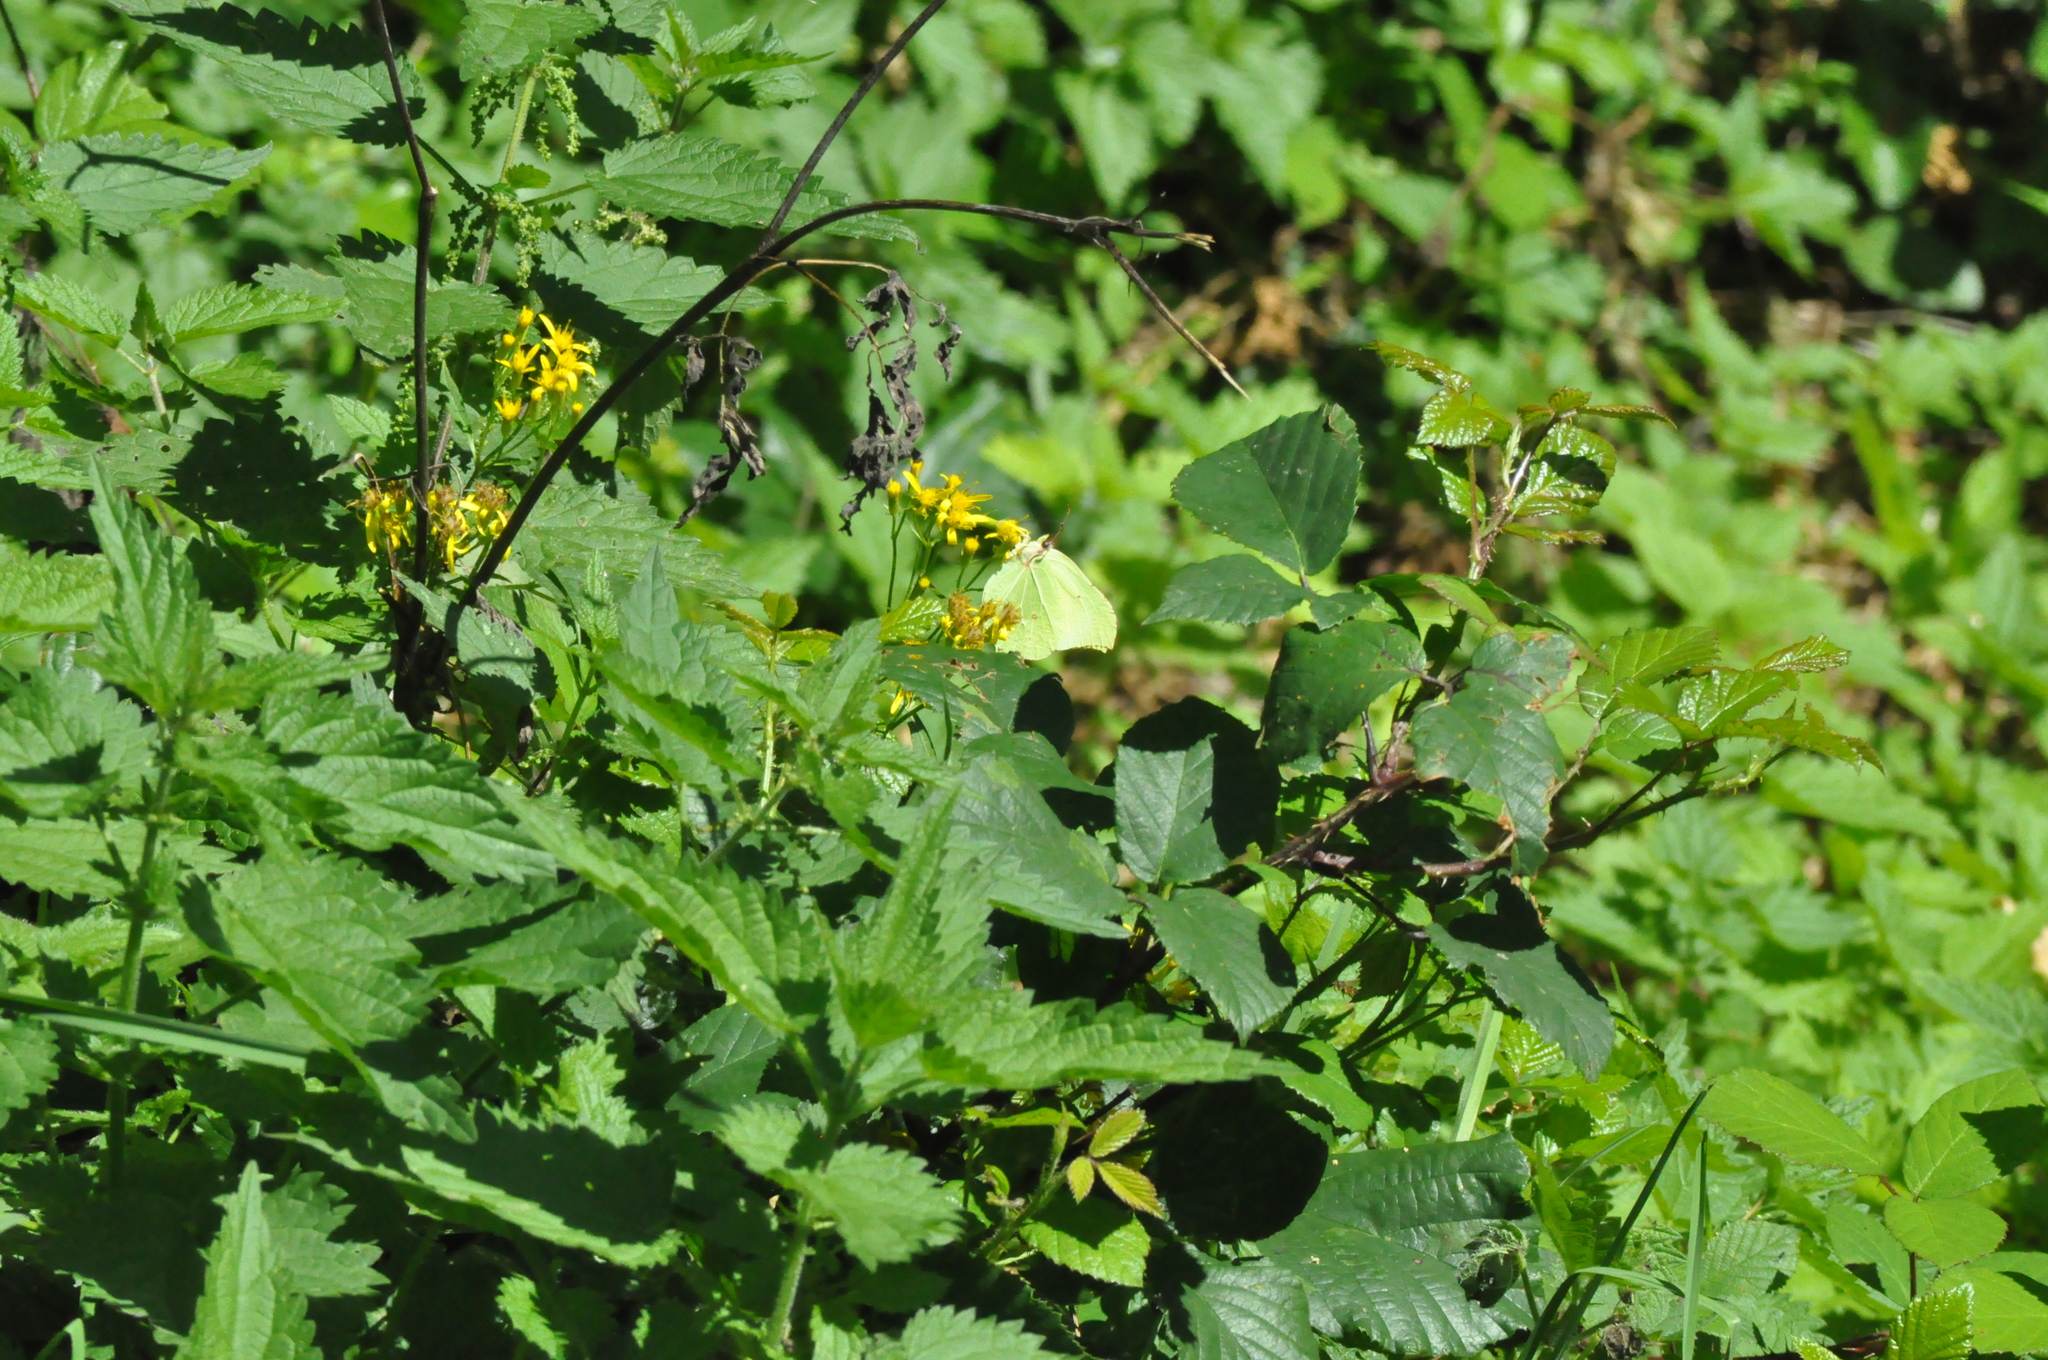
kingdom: Animalia
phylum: Arthropoda
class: Insecta
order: Lepidoptera
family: Pieridae
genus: Gonepteryx
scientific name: Gonepteryx rhamni
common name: Brimstone
